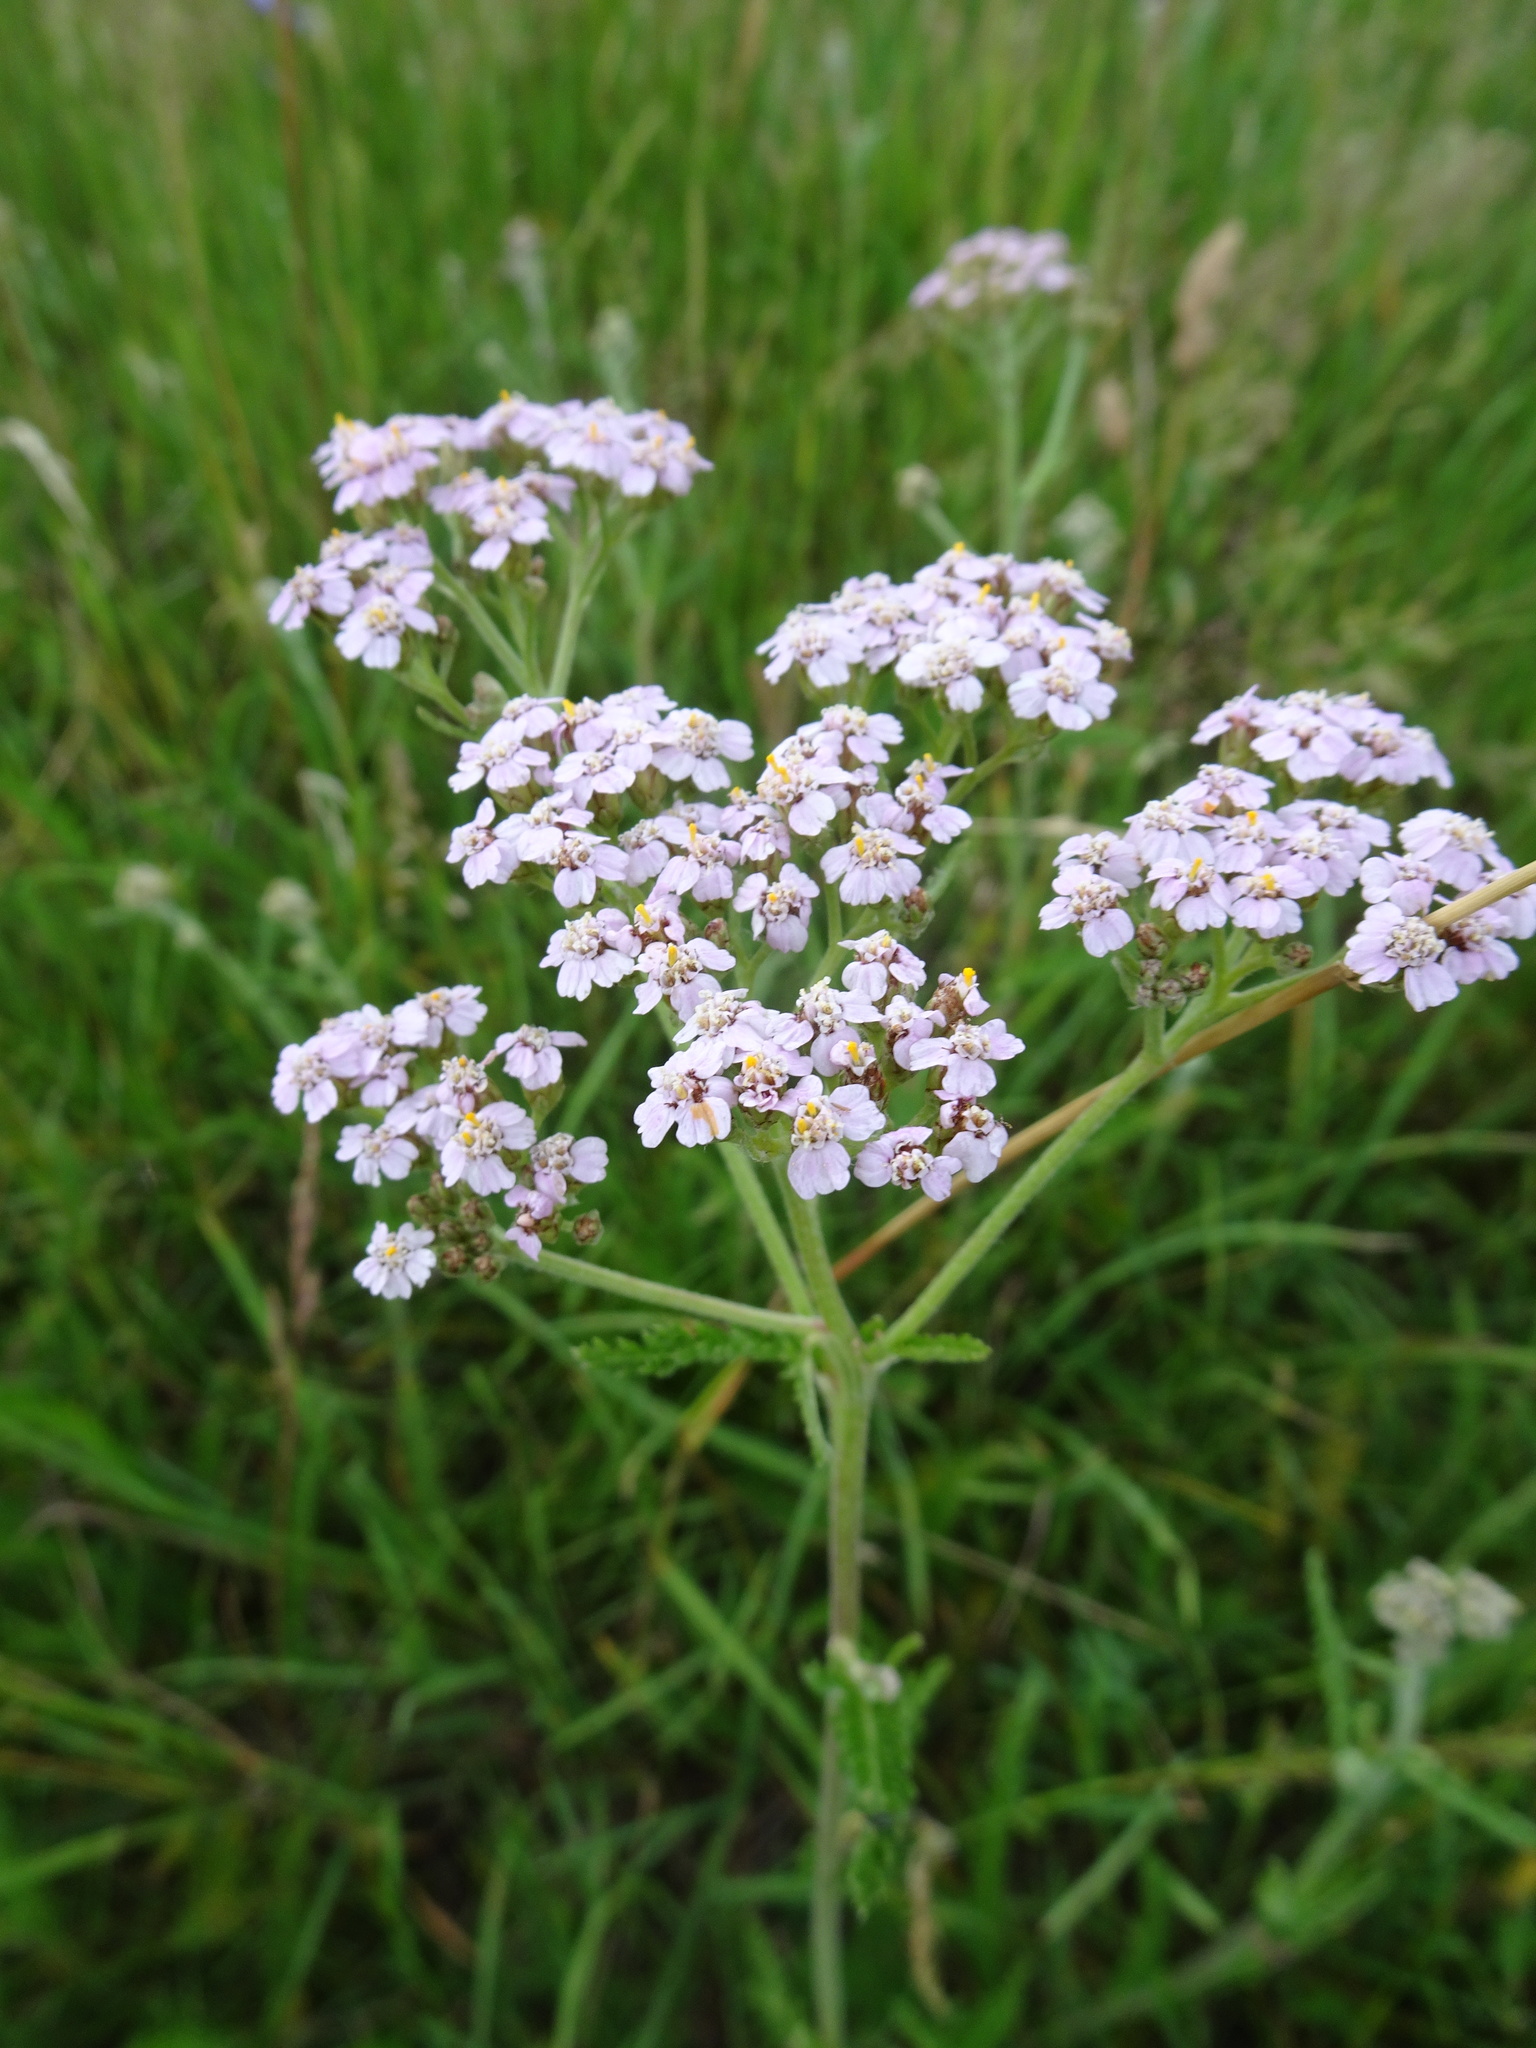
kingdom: Plantae
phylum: Tracheophyta
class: Magnoliopsida
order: Asterales
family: Asteraceae
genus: Achillea
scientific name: Achillea millefolium
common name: Yarrow
